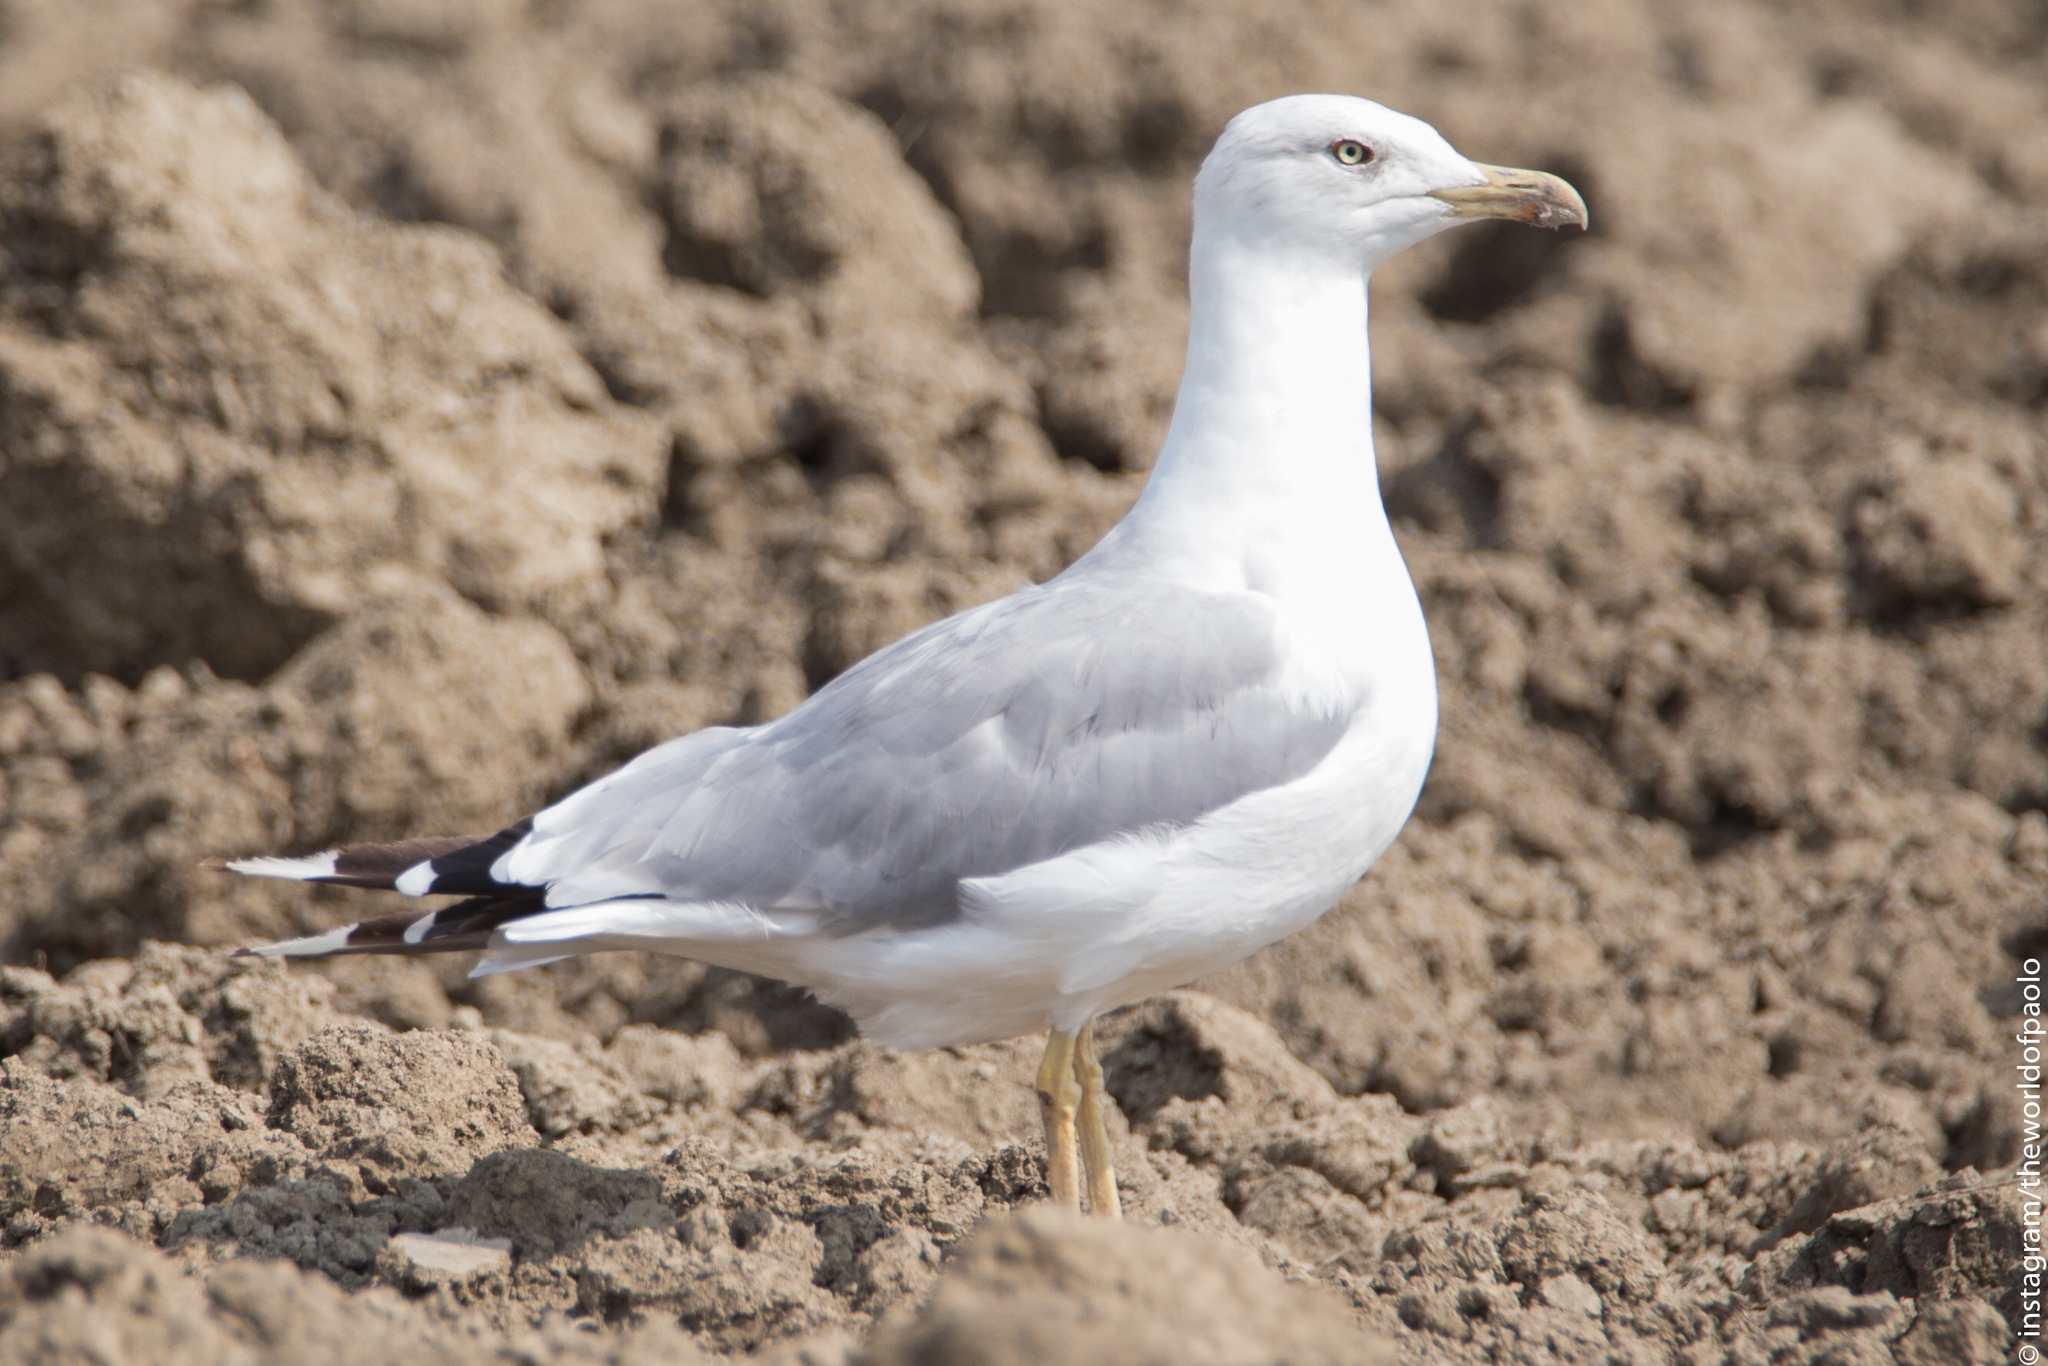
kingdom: Animalia
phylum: Chordata
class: Aves
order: Charadriiformes
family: Laridae
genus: Larus
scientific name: Larus michahellis
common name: Yellow-legged gull
